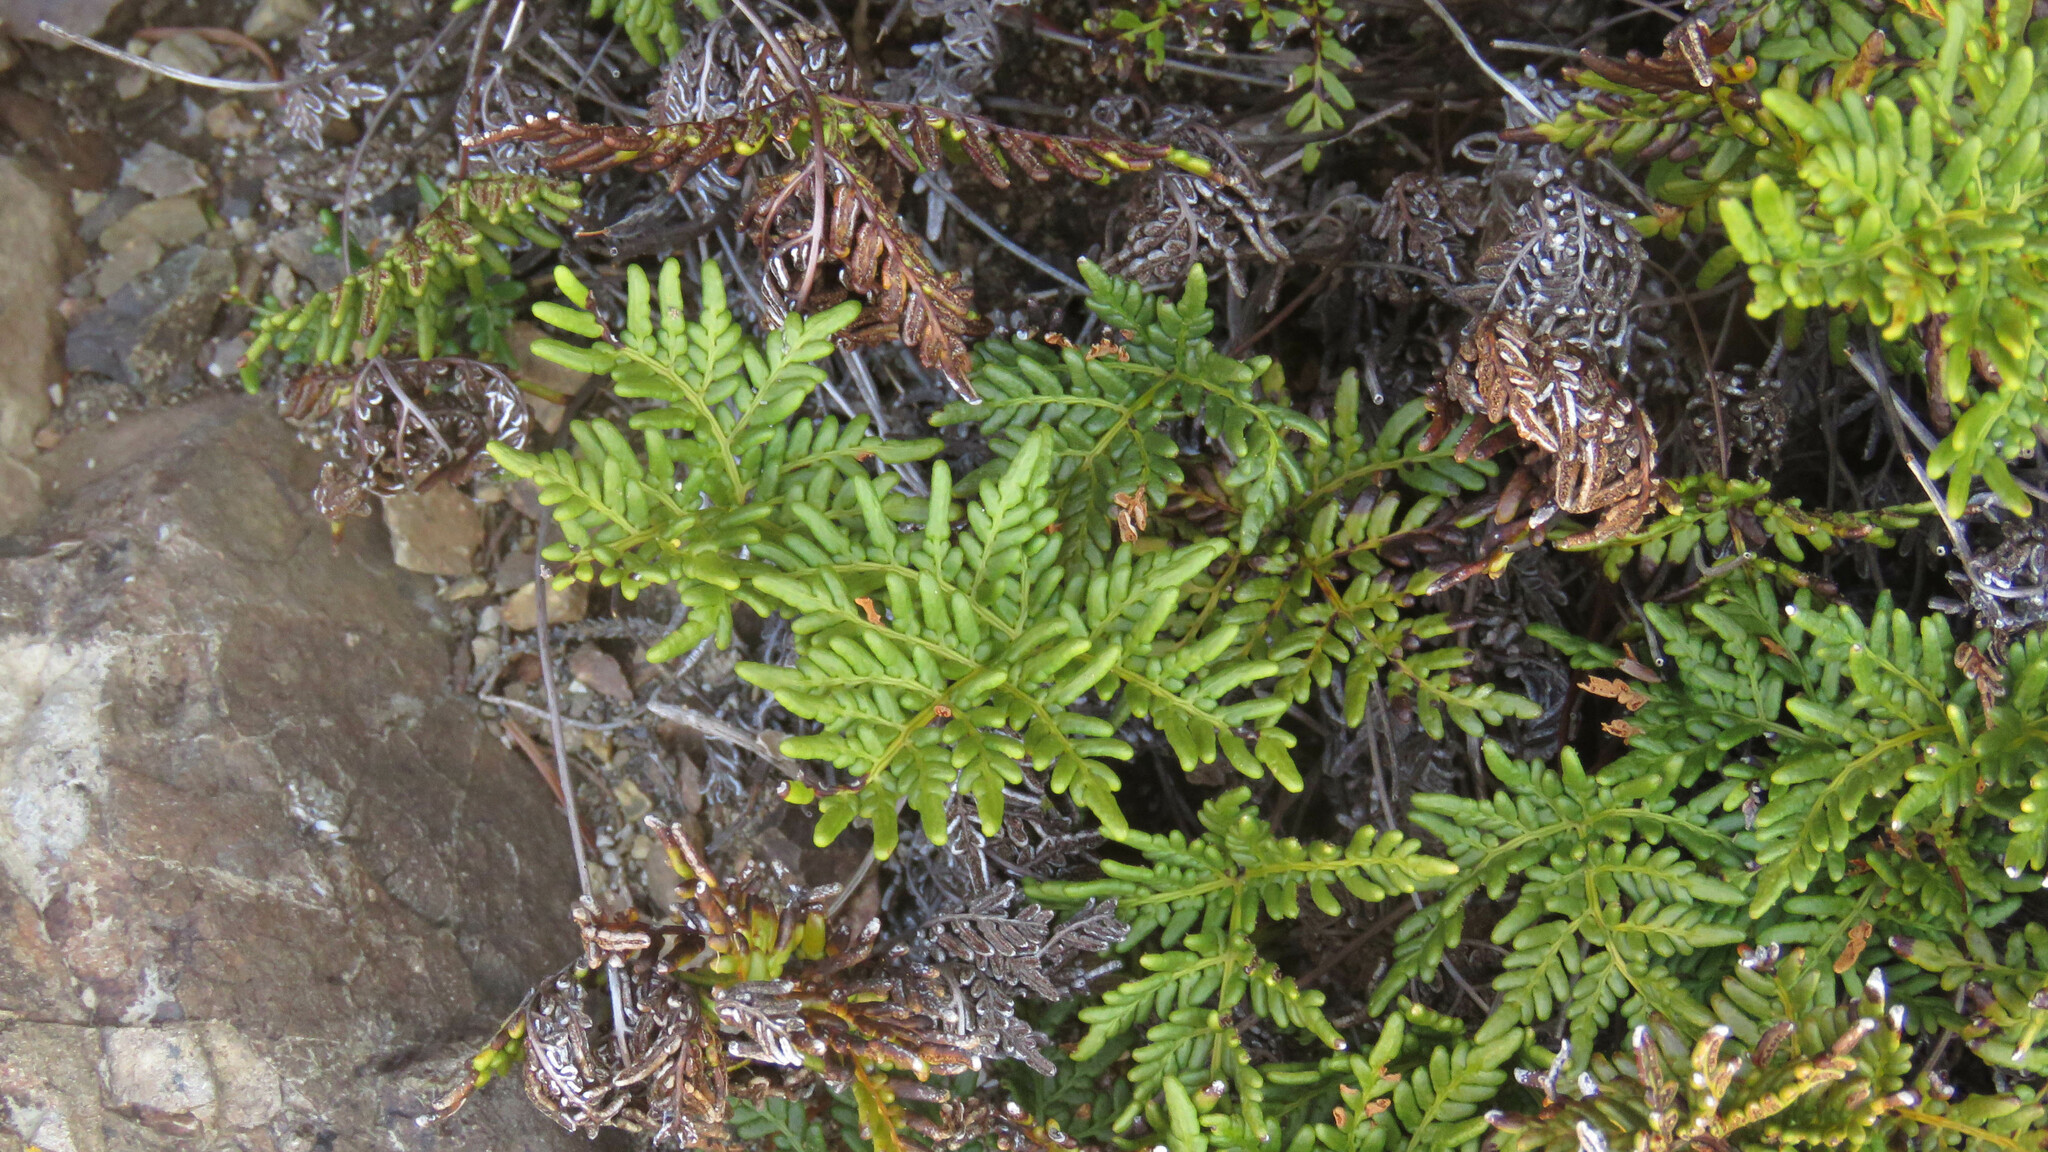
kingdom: Plantae
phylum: Tracheophyta
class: Polypodiopsida
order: Polypodiales
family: Pteridaceae
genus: Cheilanthes
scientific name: Cheilanthes glauca
